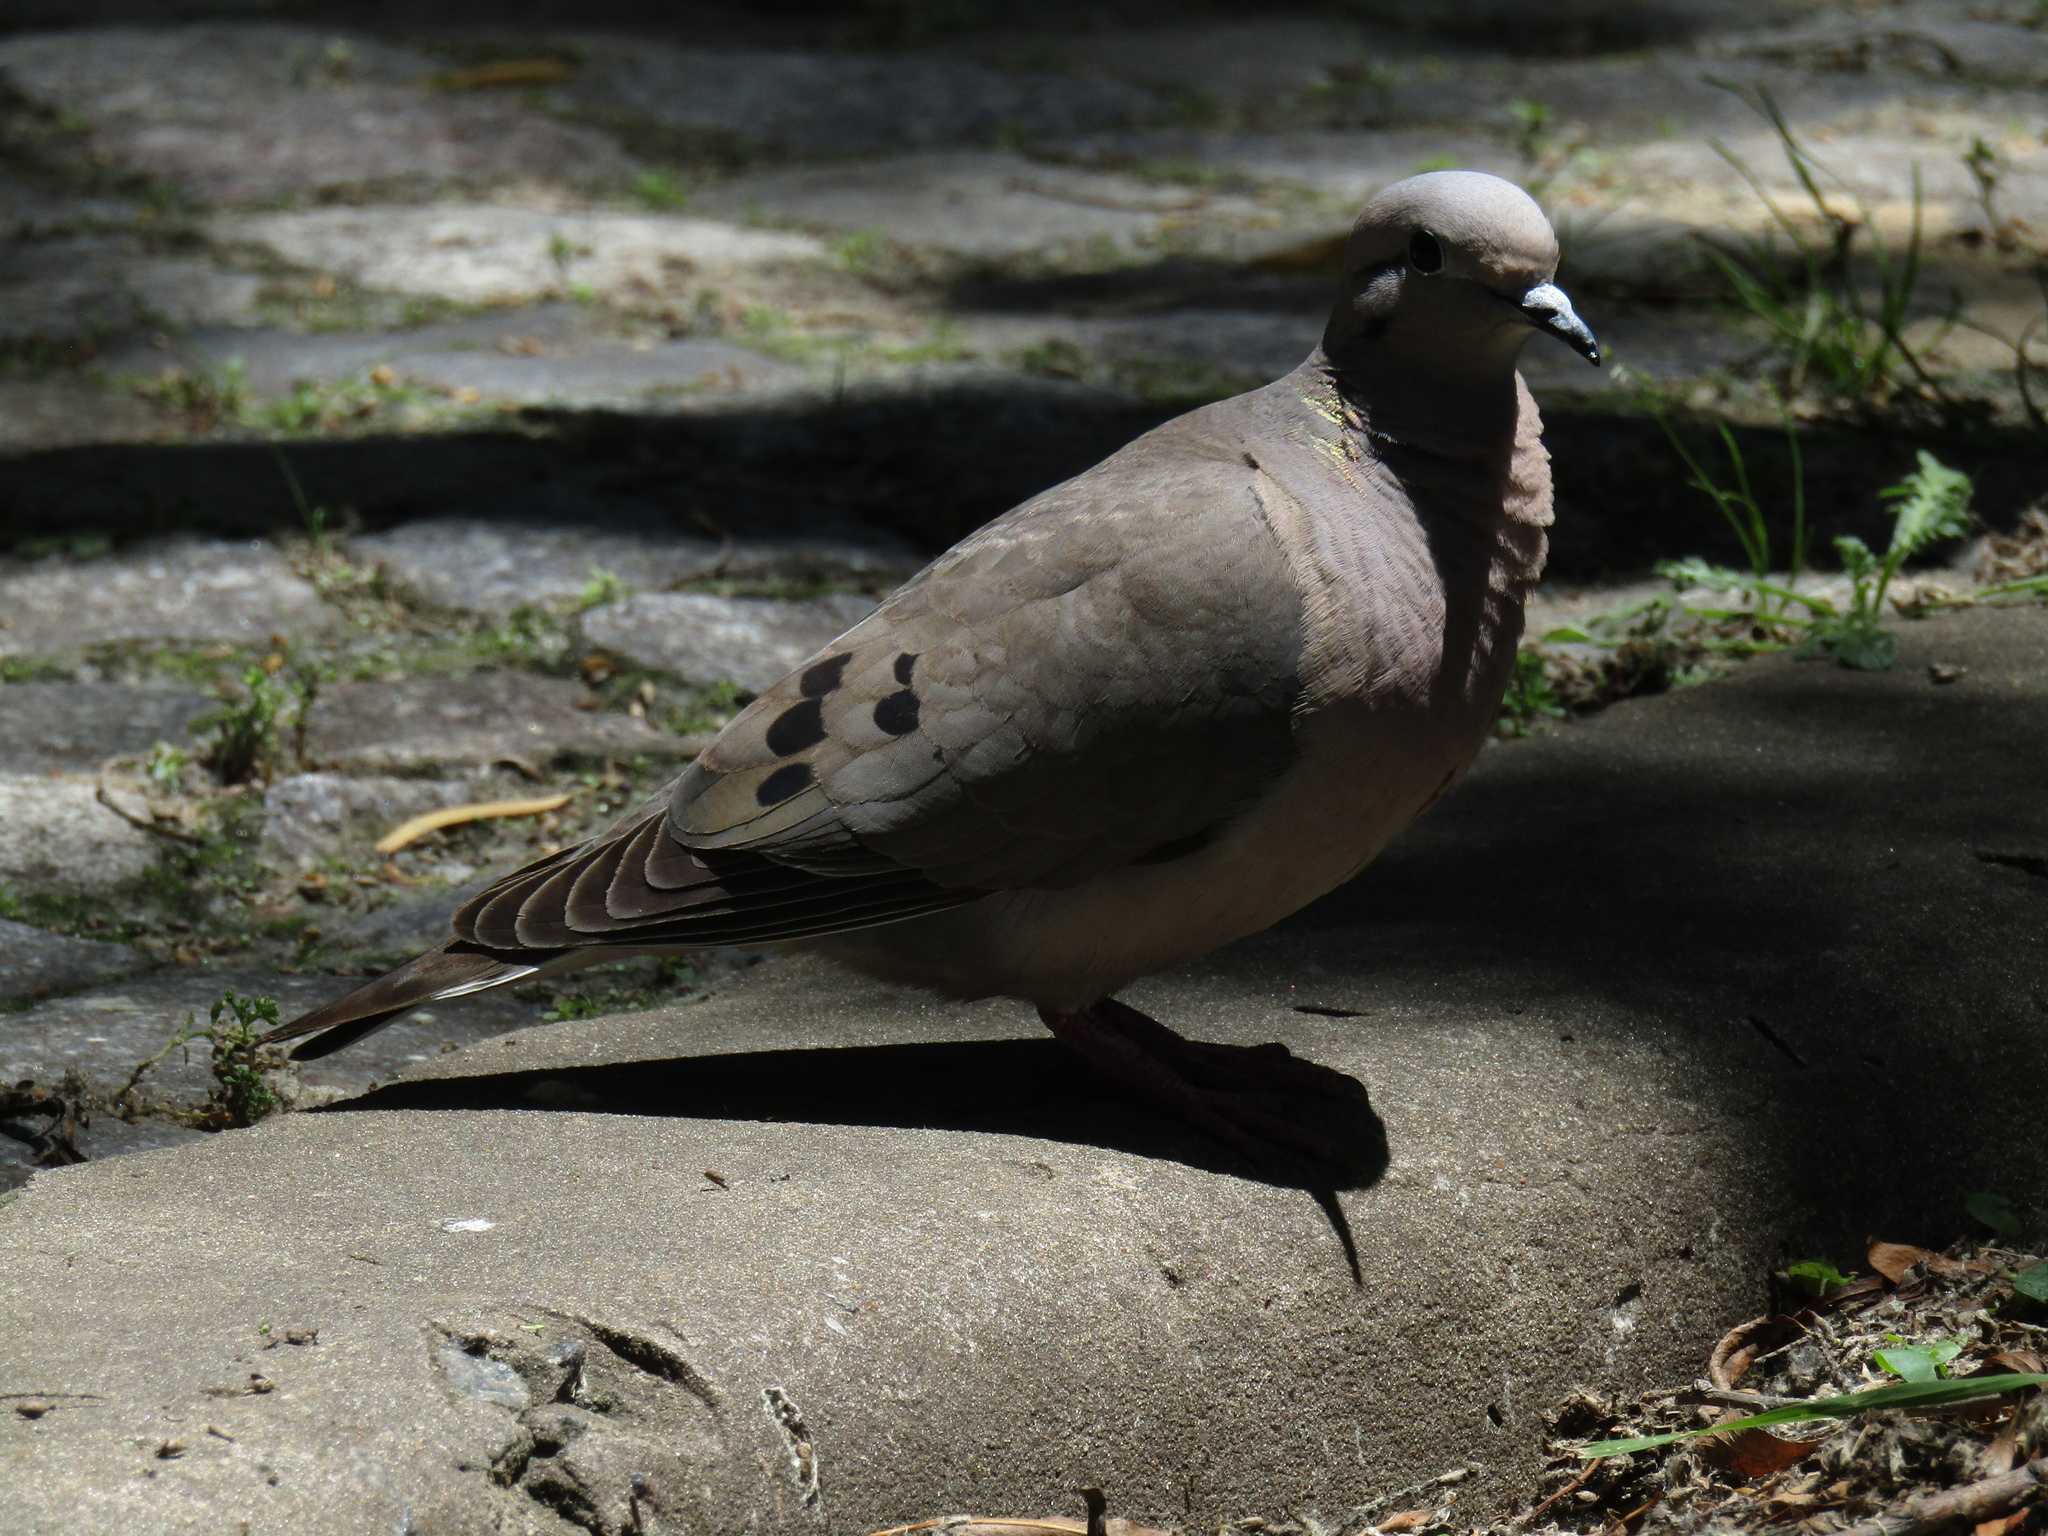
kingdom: Animalia
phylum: Chordata
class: Aves
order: Columbiformes
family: Columbidae
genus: Zenaida
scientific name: Zenaida auriculata
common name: Eared dove
